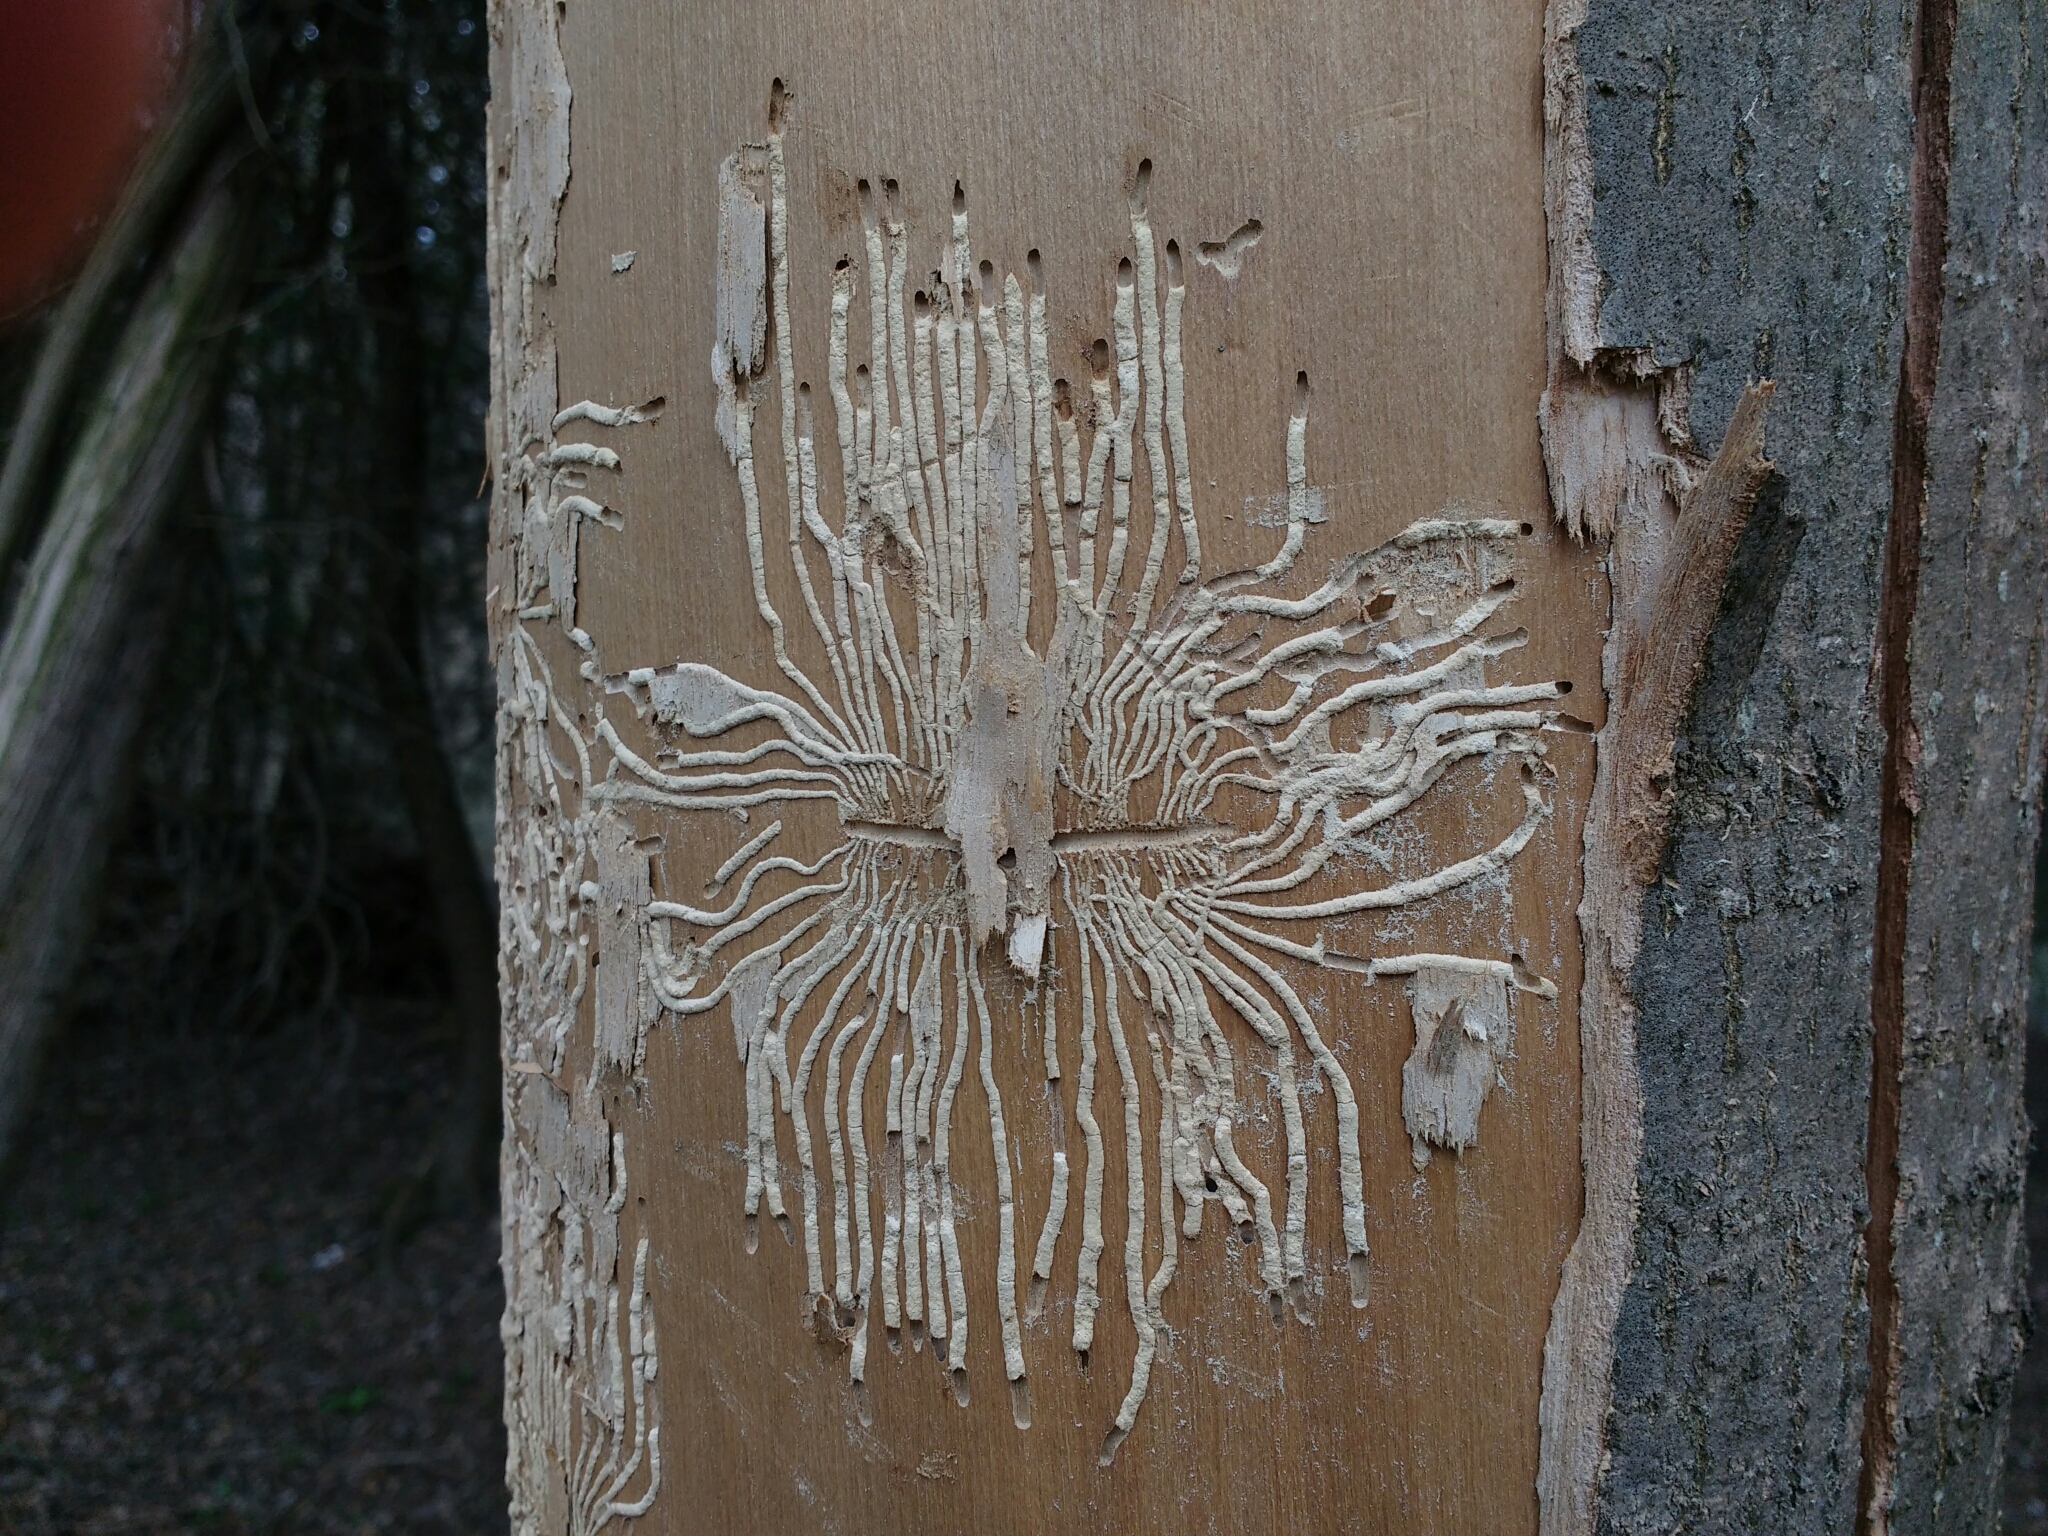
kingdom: Animalia
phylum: Arthropoda
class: Insecta
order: Coleoptera
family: Curculionidae
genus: Ips
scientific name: Ips typographus
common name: Eight-toothed spruce bark beetle
